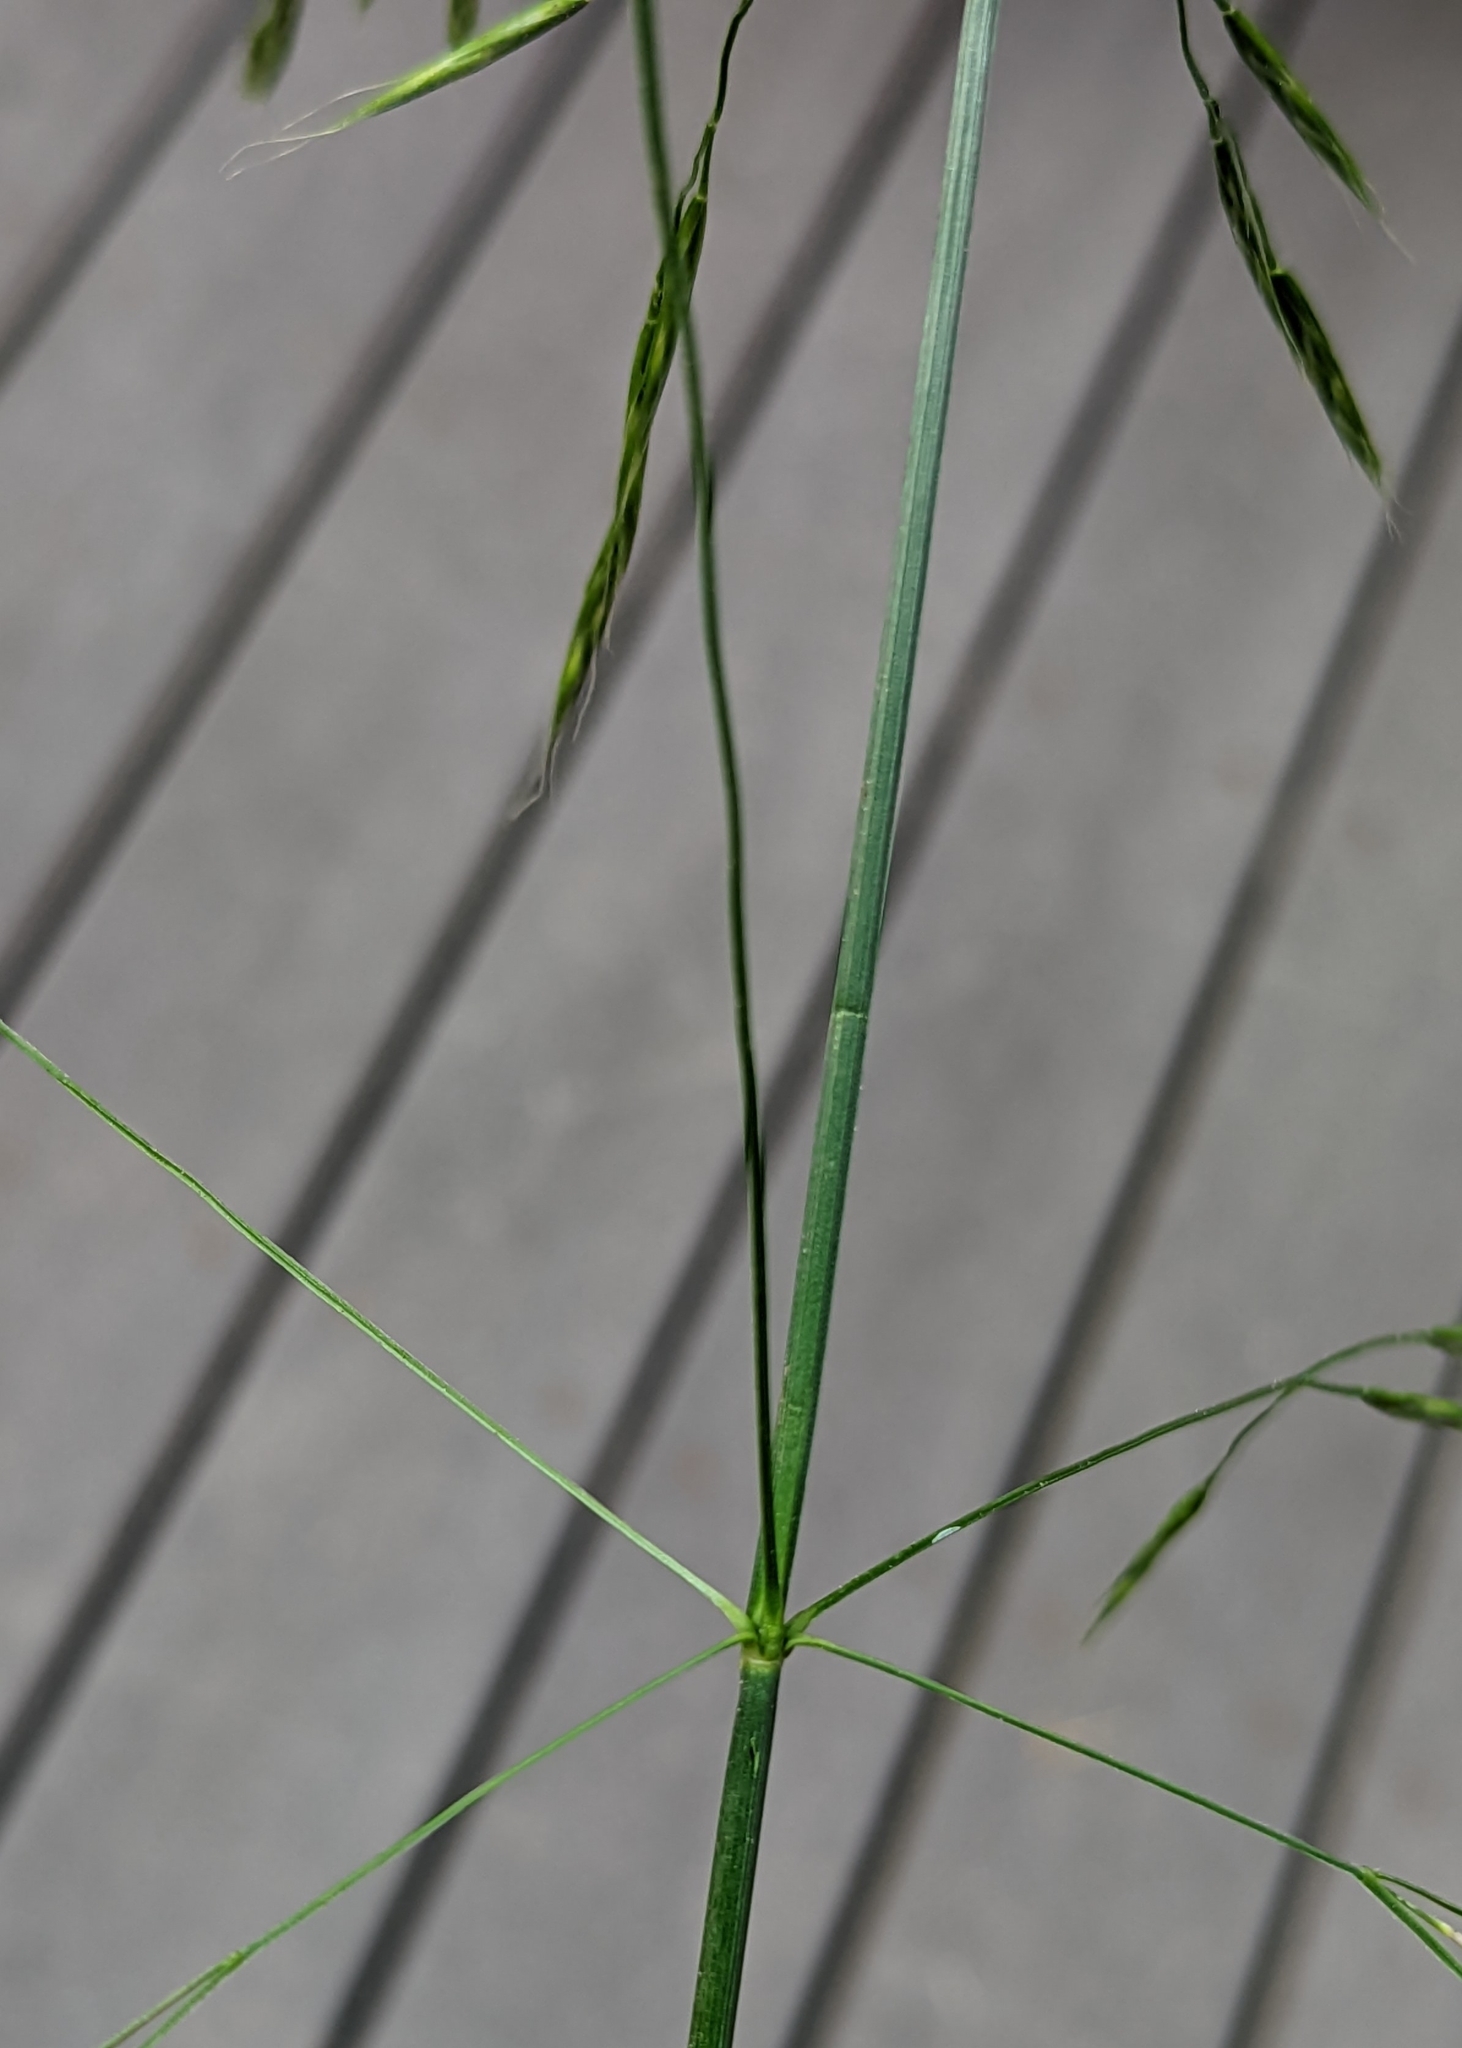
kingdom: Plantae
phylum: Tracheophyta
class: Liliopsida
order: Poales
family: Poaceae
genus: Bromus
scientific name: Bromus sitchensis
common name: Sitka brome
